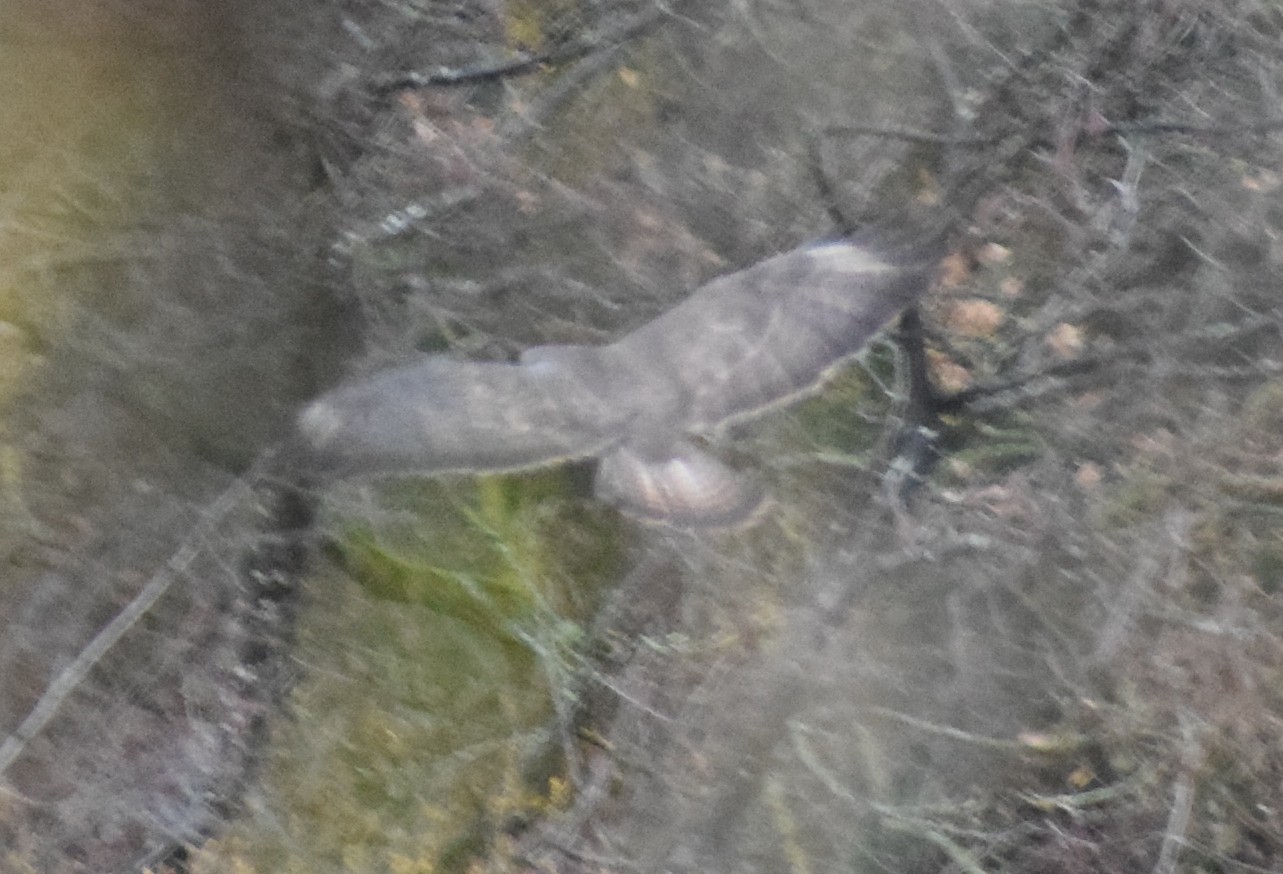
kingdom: Animalia
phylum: Chordata
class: Aves
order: Accipitriformes
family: Accipitridae
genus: Buteo
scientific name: Buteo buteo
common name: Common buzzard
